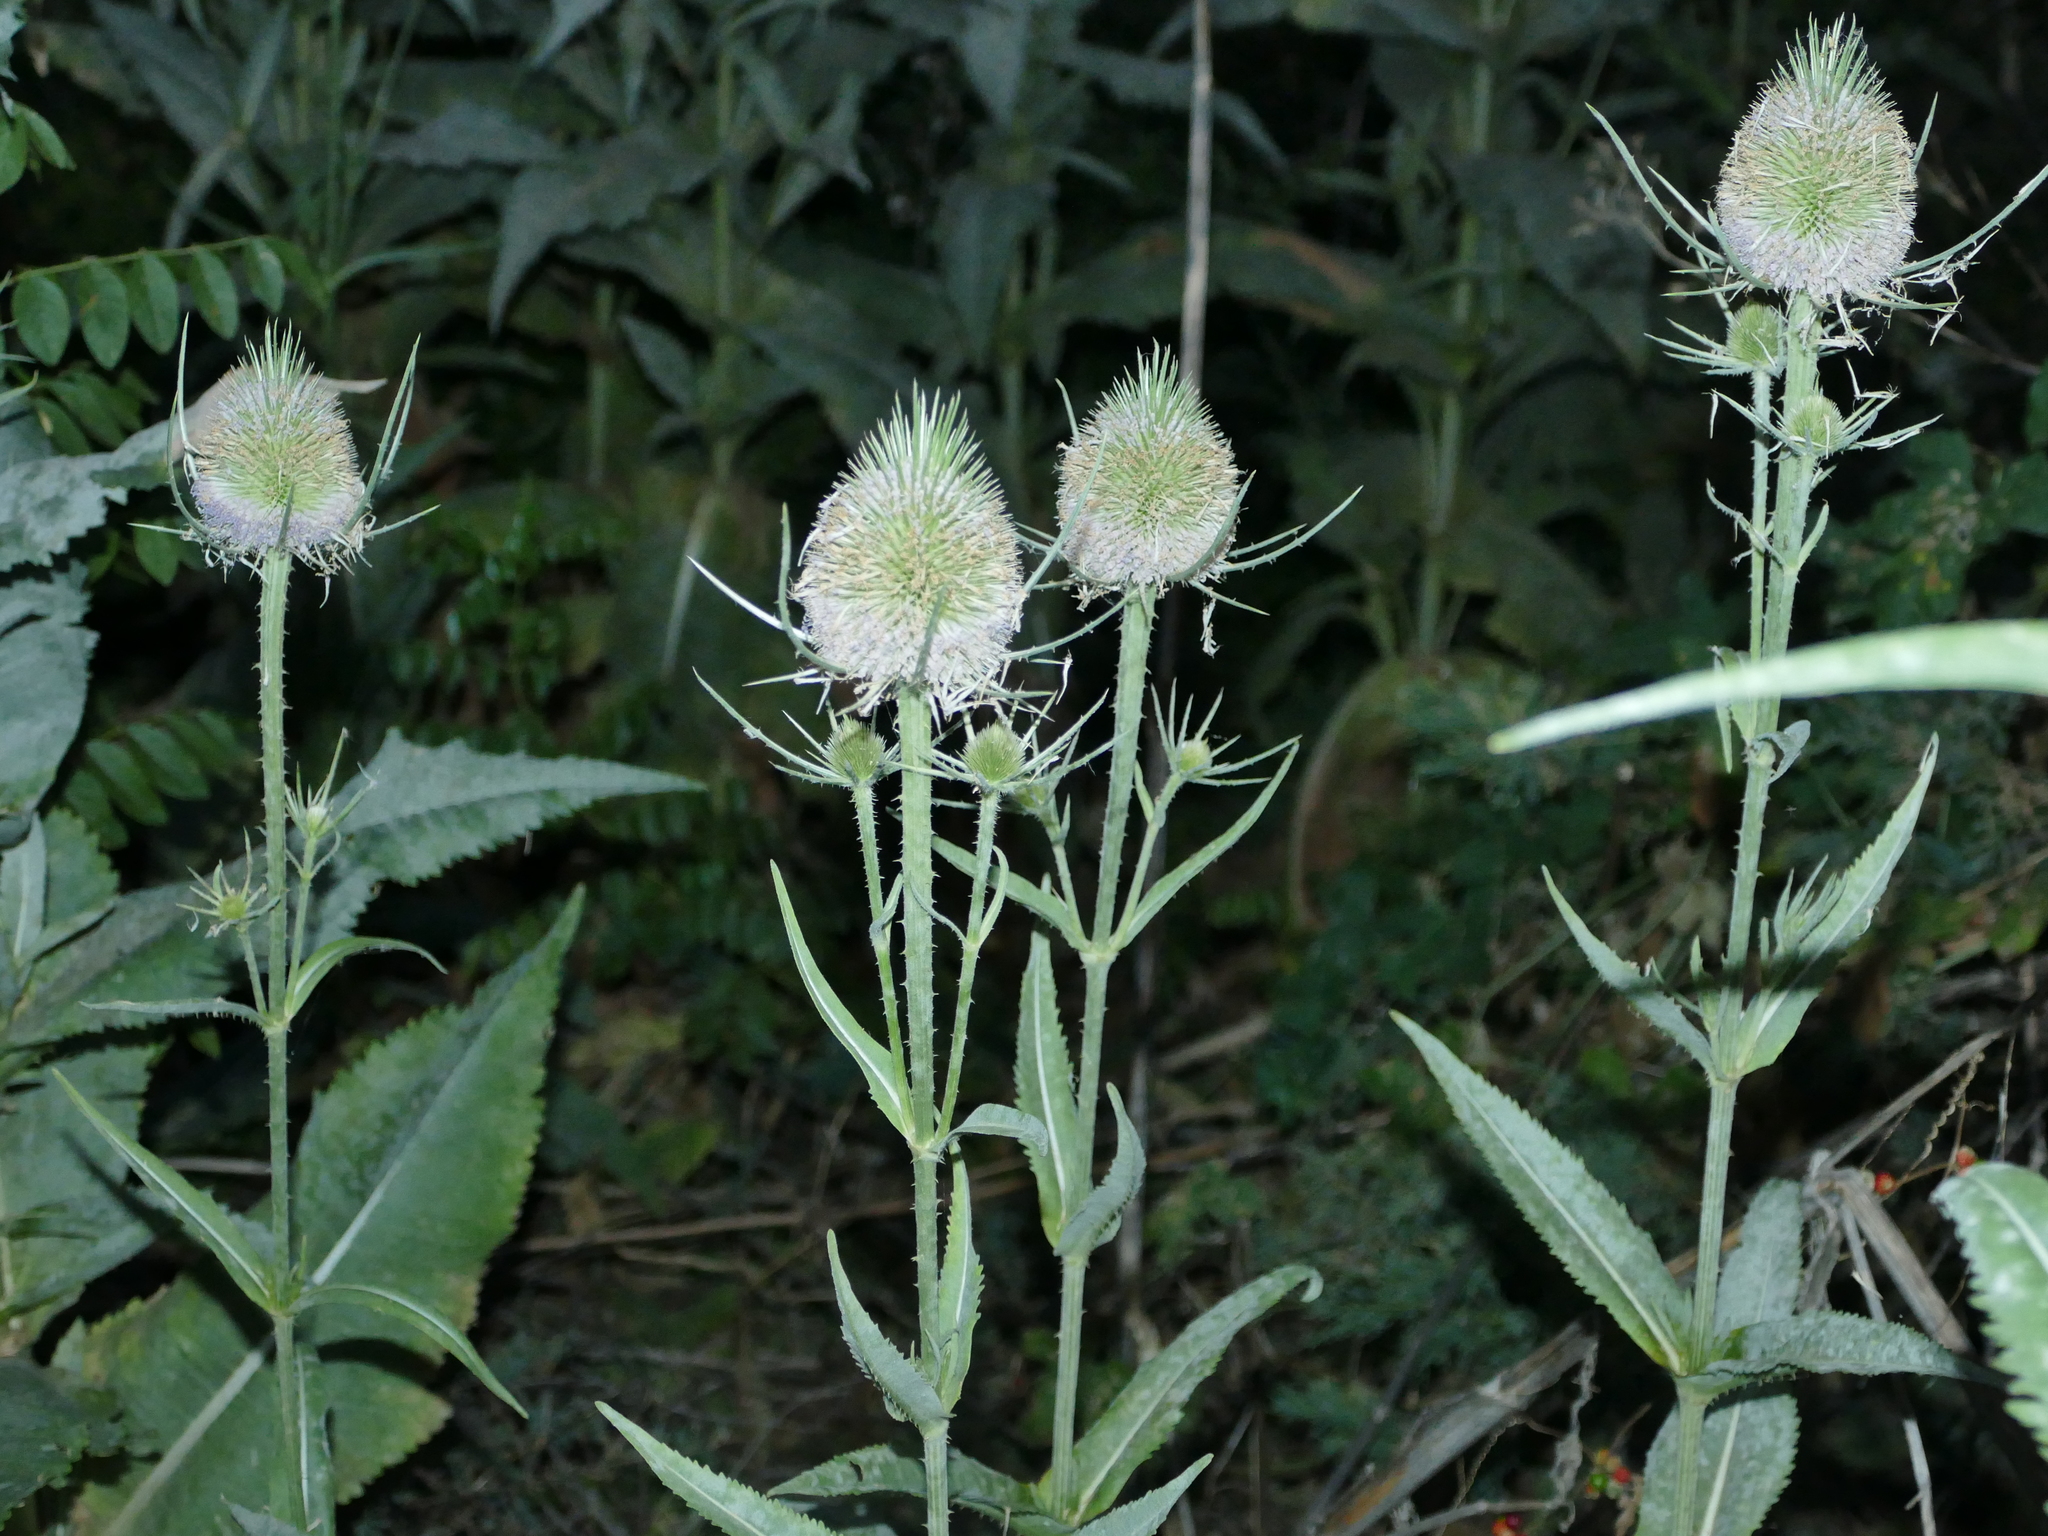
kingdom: Plantae
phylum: Tracheophyta
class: Magnoliopsida
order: Dipsacales
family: Caprifoliaceae
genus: Dipsacus
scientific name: Dipsacus fullonum
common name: Teasel
